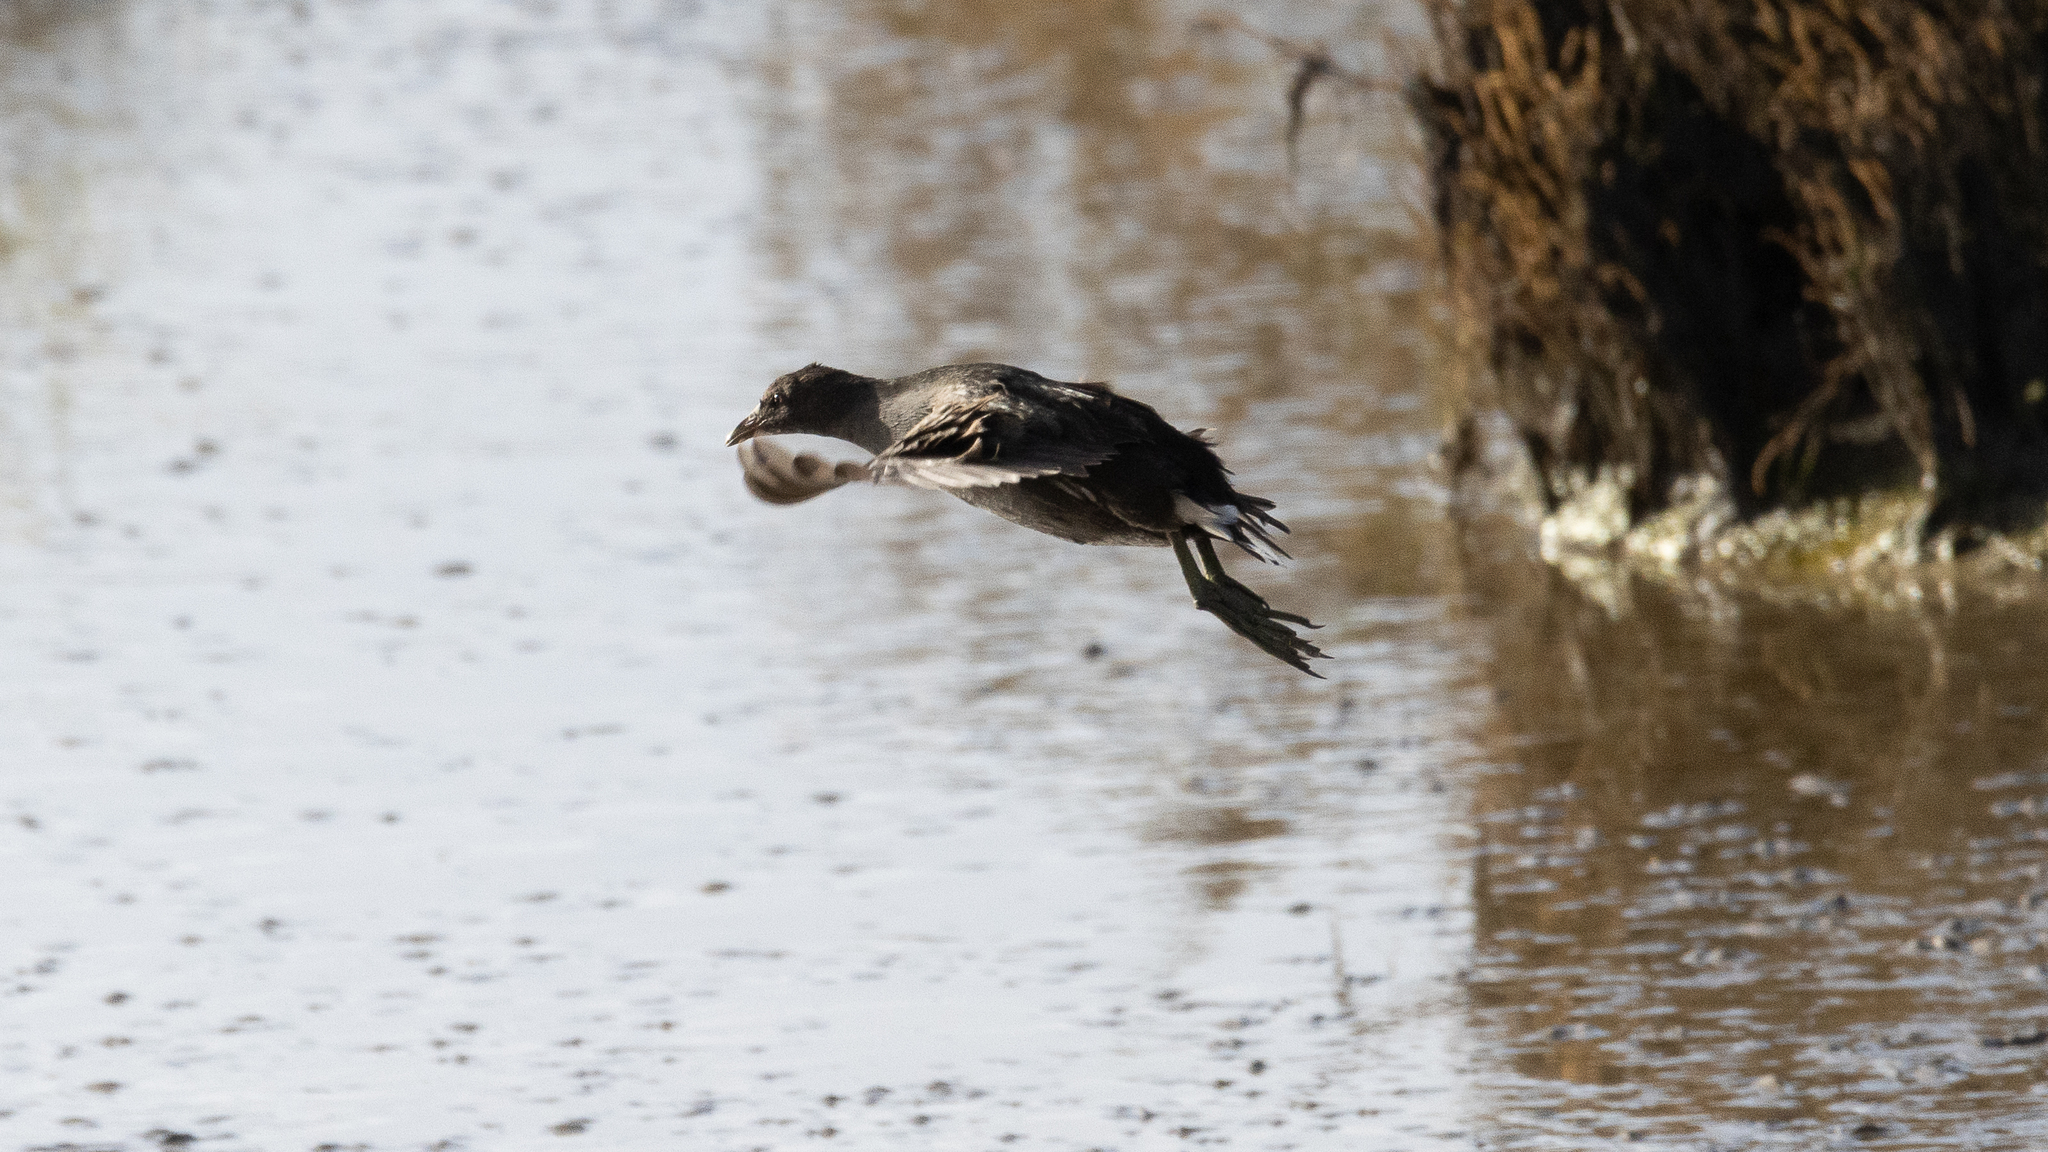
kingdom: Animalia
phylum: Chordata
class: Aves
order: Gruiformes
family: Rallidae
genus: Gallinula
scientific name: Gallinula chloropus
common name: Common moorhen
